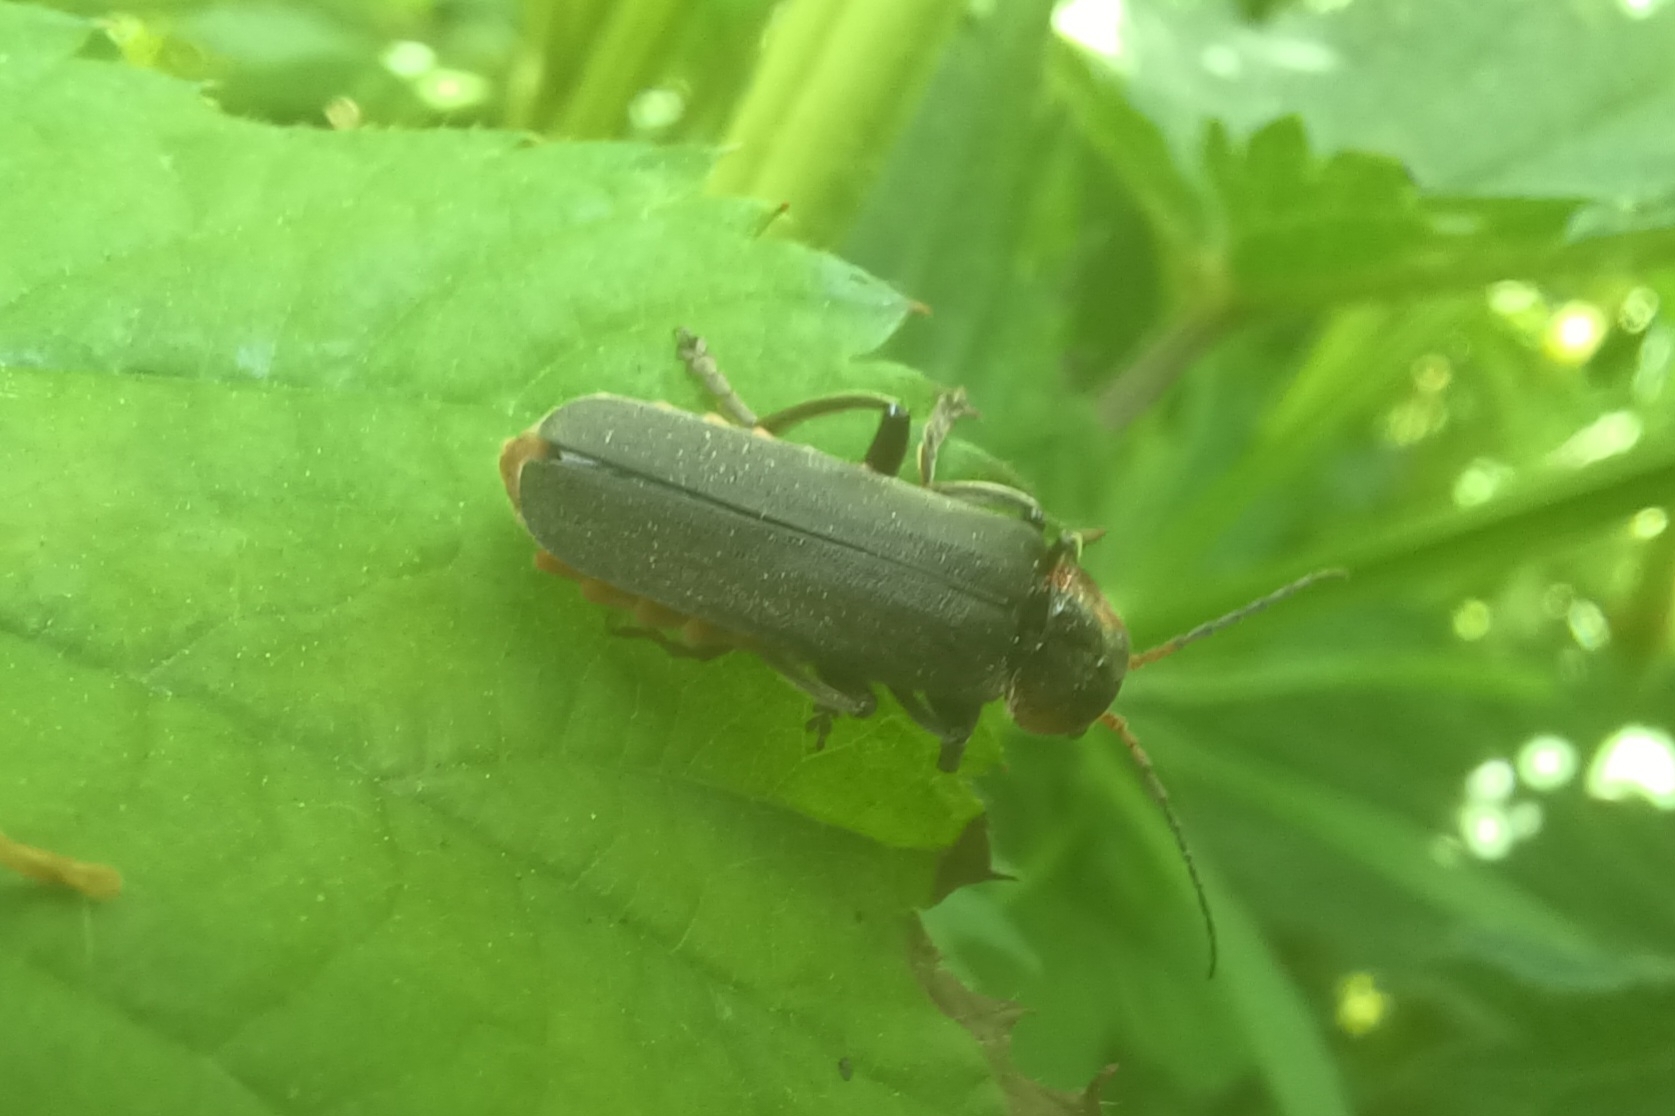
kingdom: Animalia
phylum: Arthropoda
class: Insecta
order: Coleoptera
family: Cantharidae
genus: Cantharis
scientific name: Cantharis fusca
